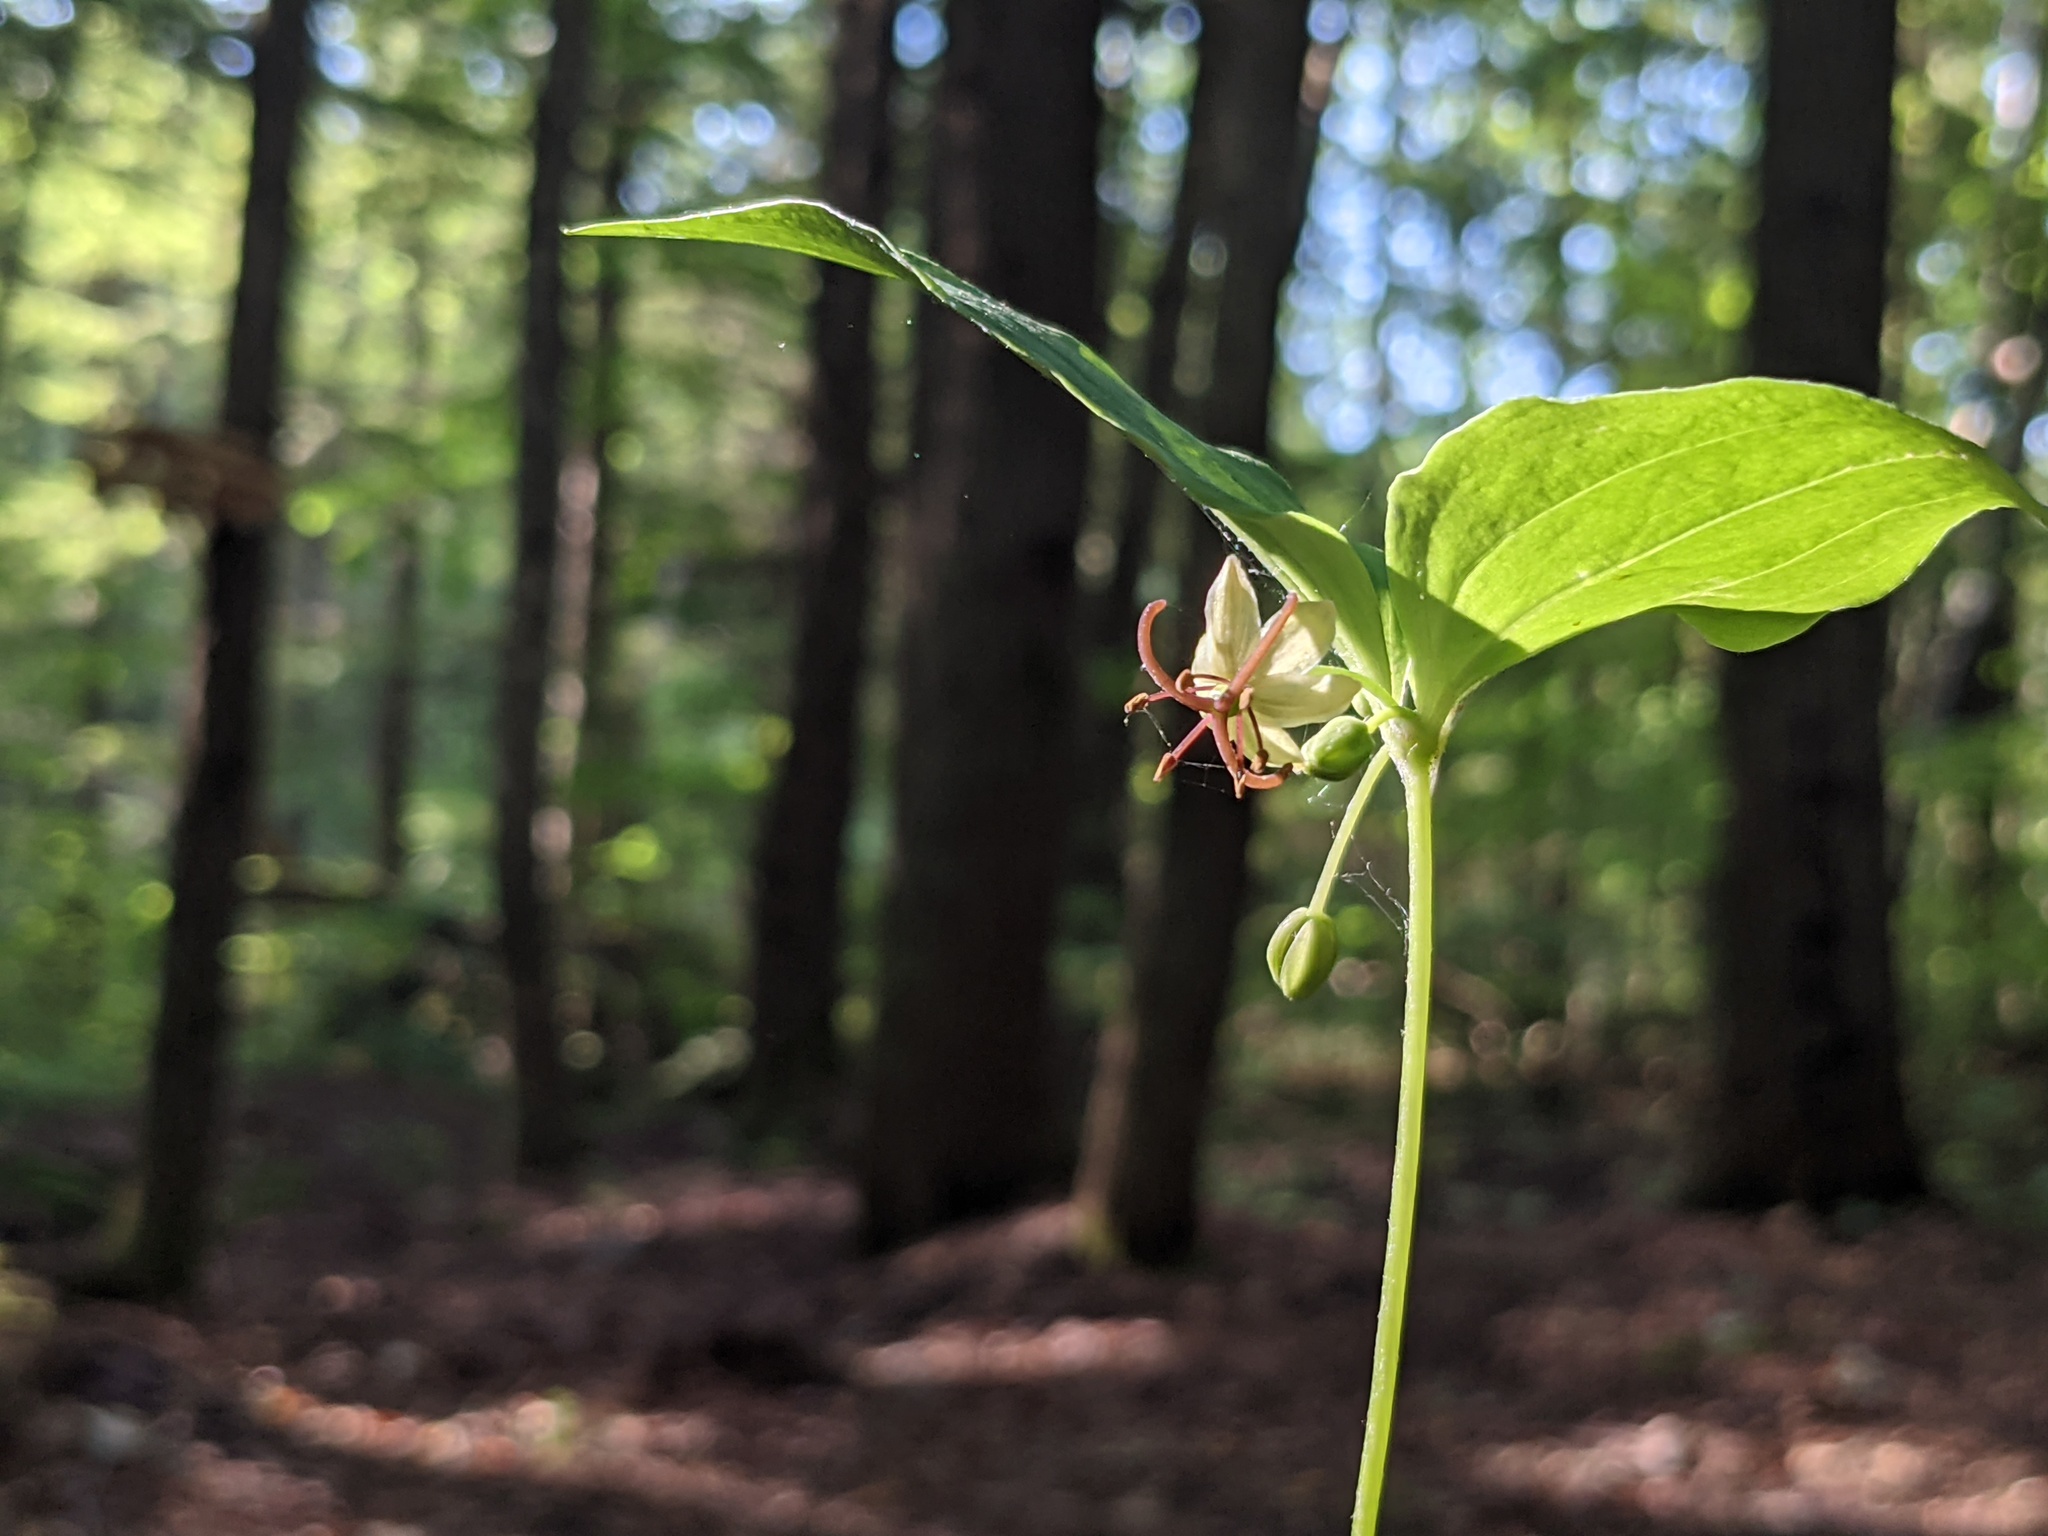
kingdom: Plantae
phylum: Tracheophyta
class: Liliopsida
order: Liliales
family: Liliaceae
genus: Medeola
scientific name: Medeola virginiana
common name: Indian cucumber-root
